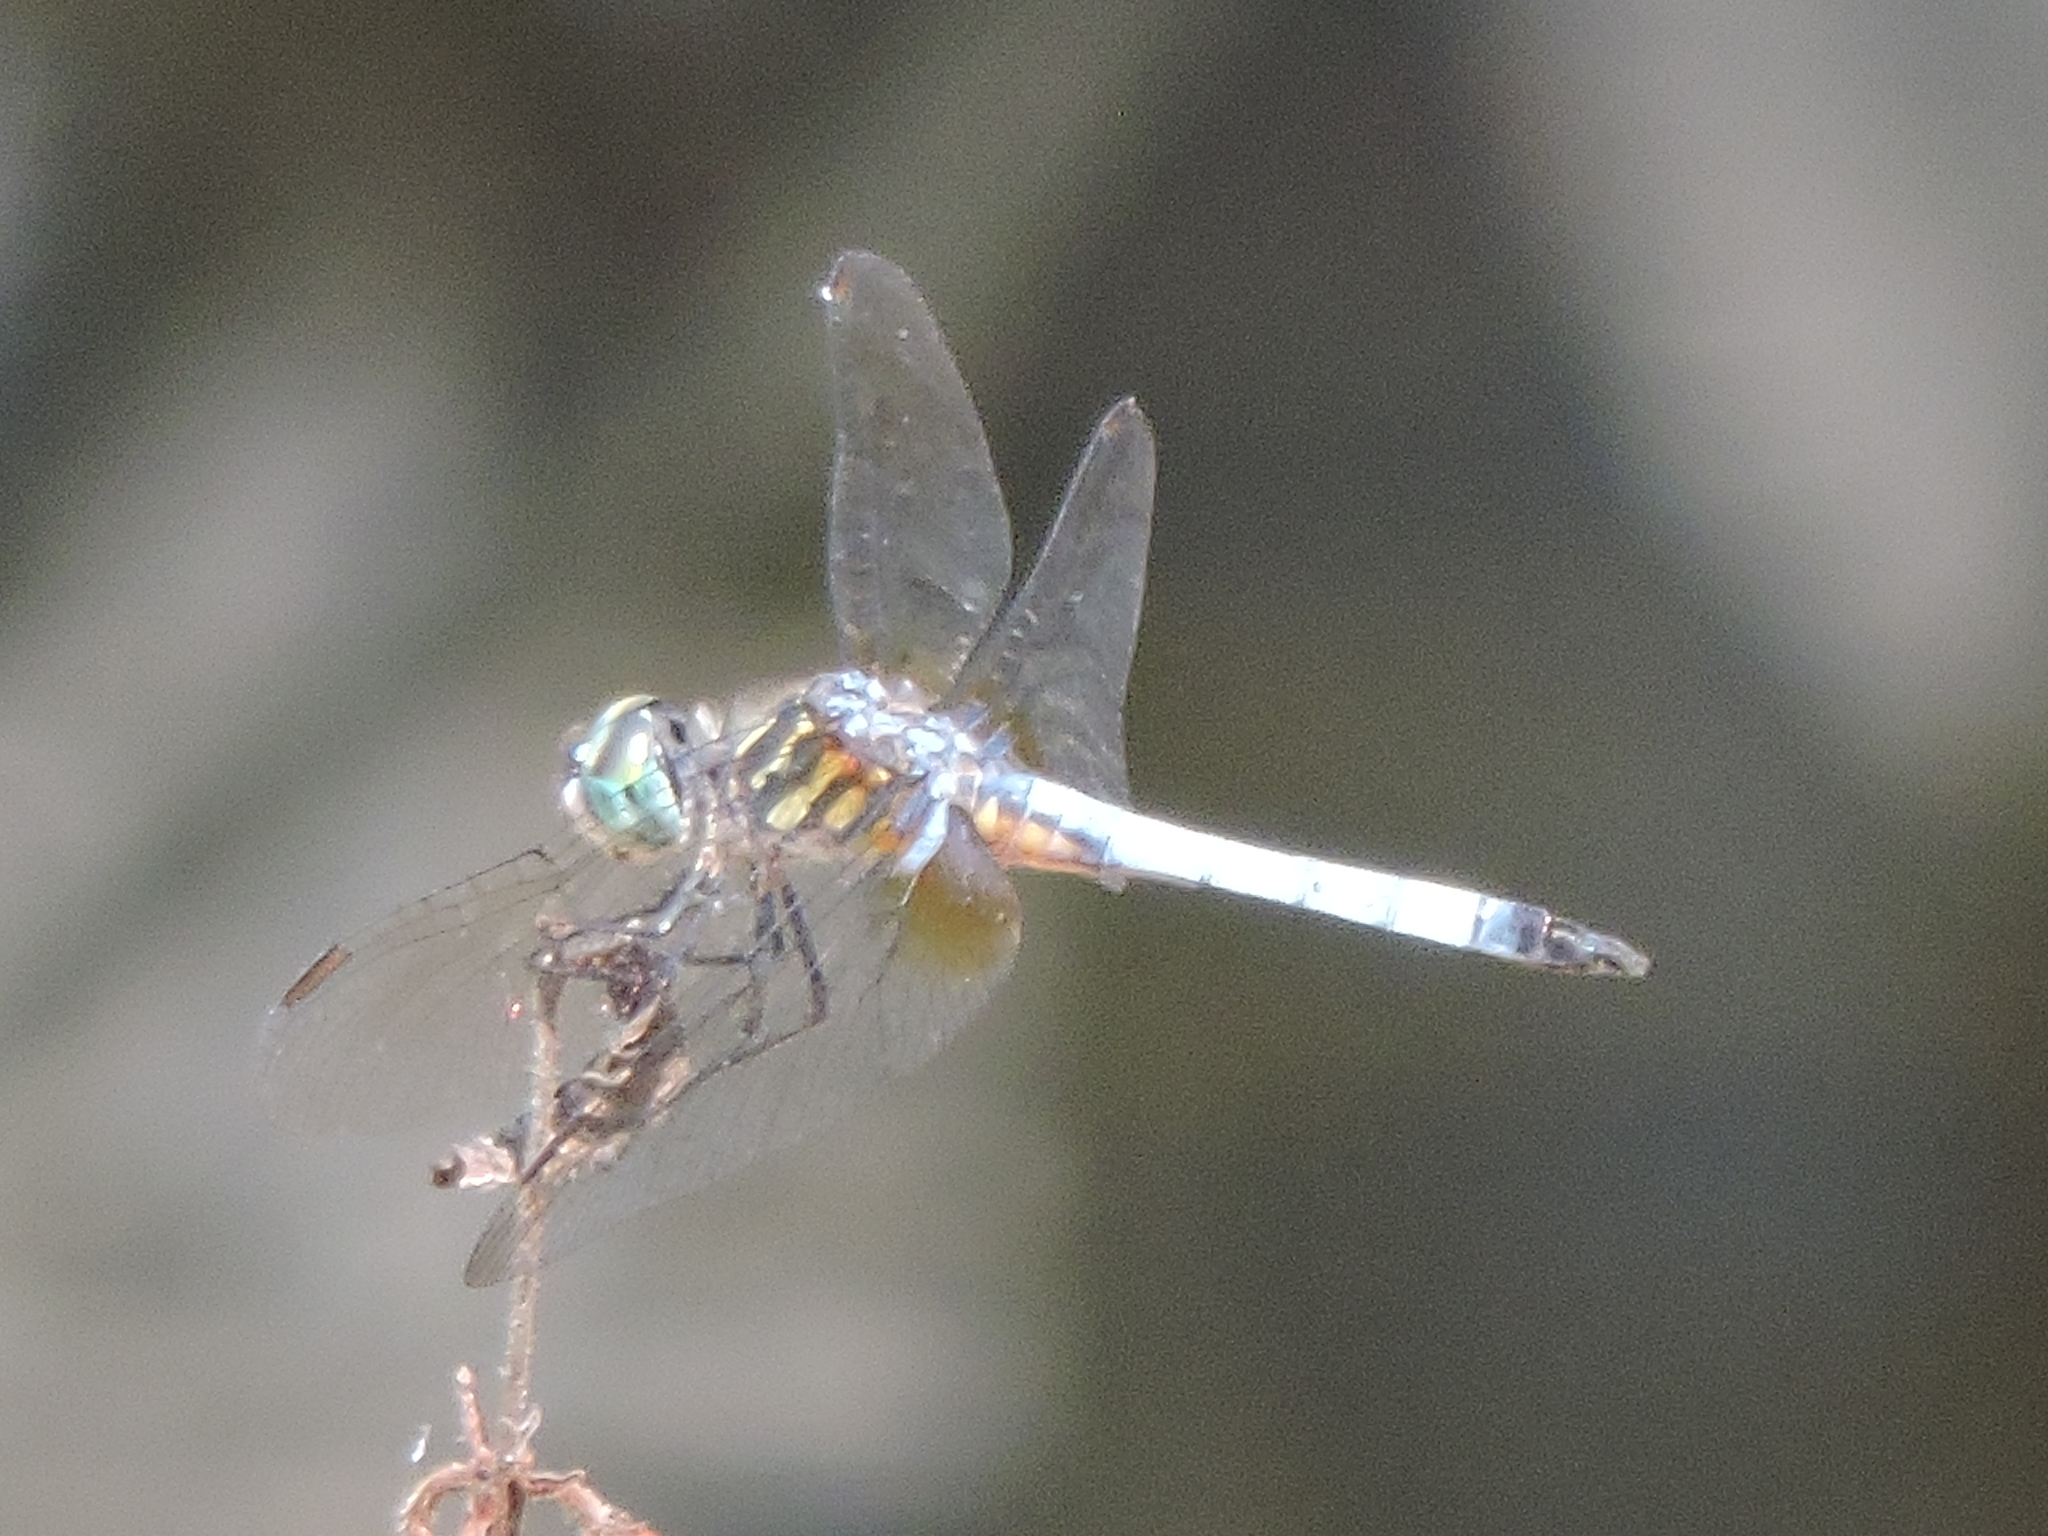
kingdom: Animalia
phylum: Arthropoda
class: Insecta
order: Odonata
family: Libellulidae
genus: Pachydiplax
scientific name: Pachydiplax longipennis
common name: Blue dasher
